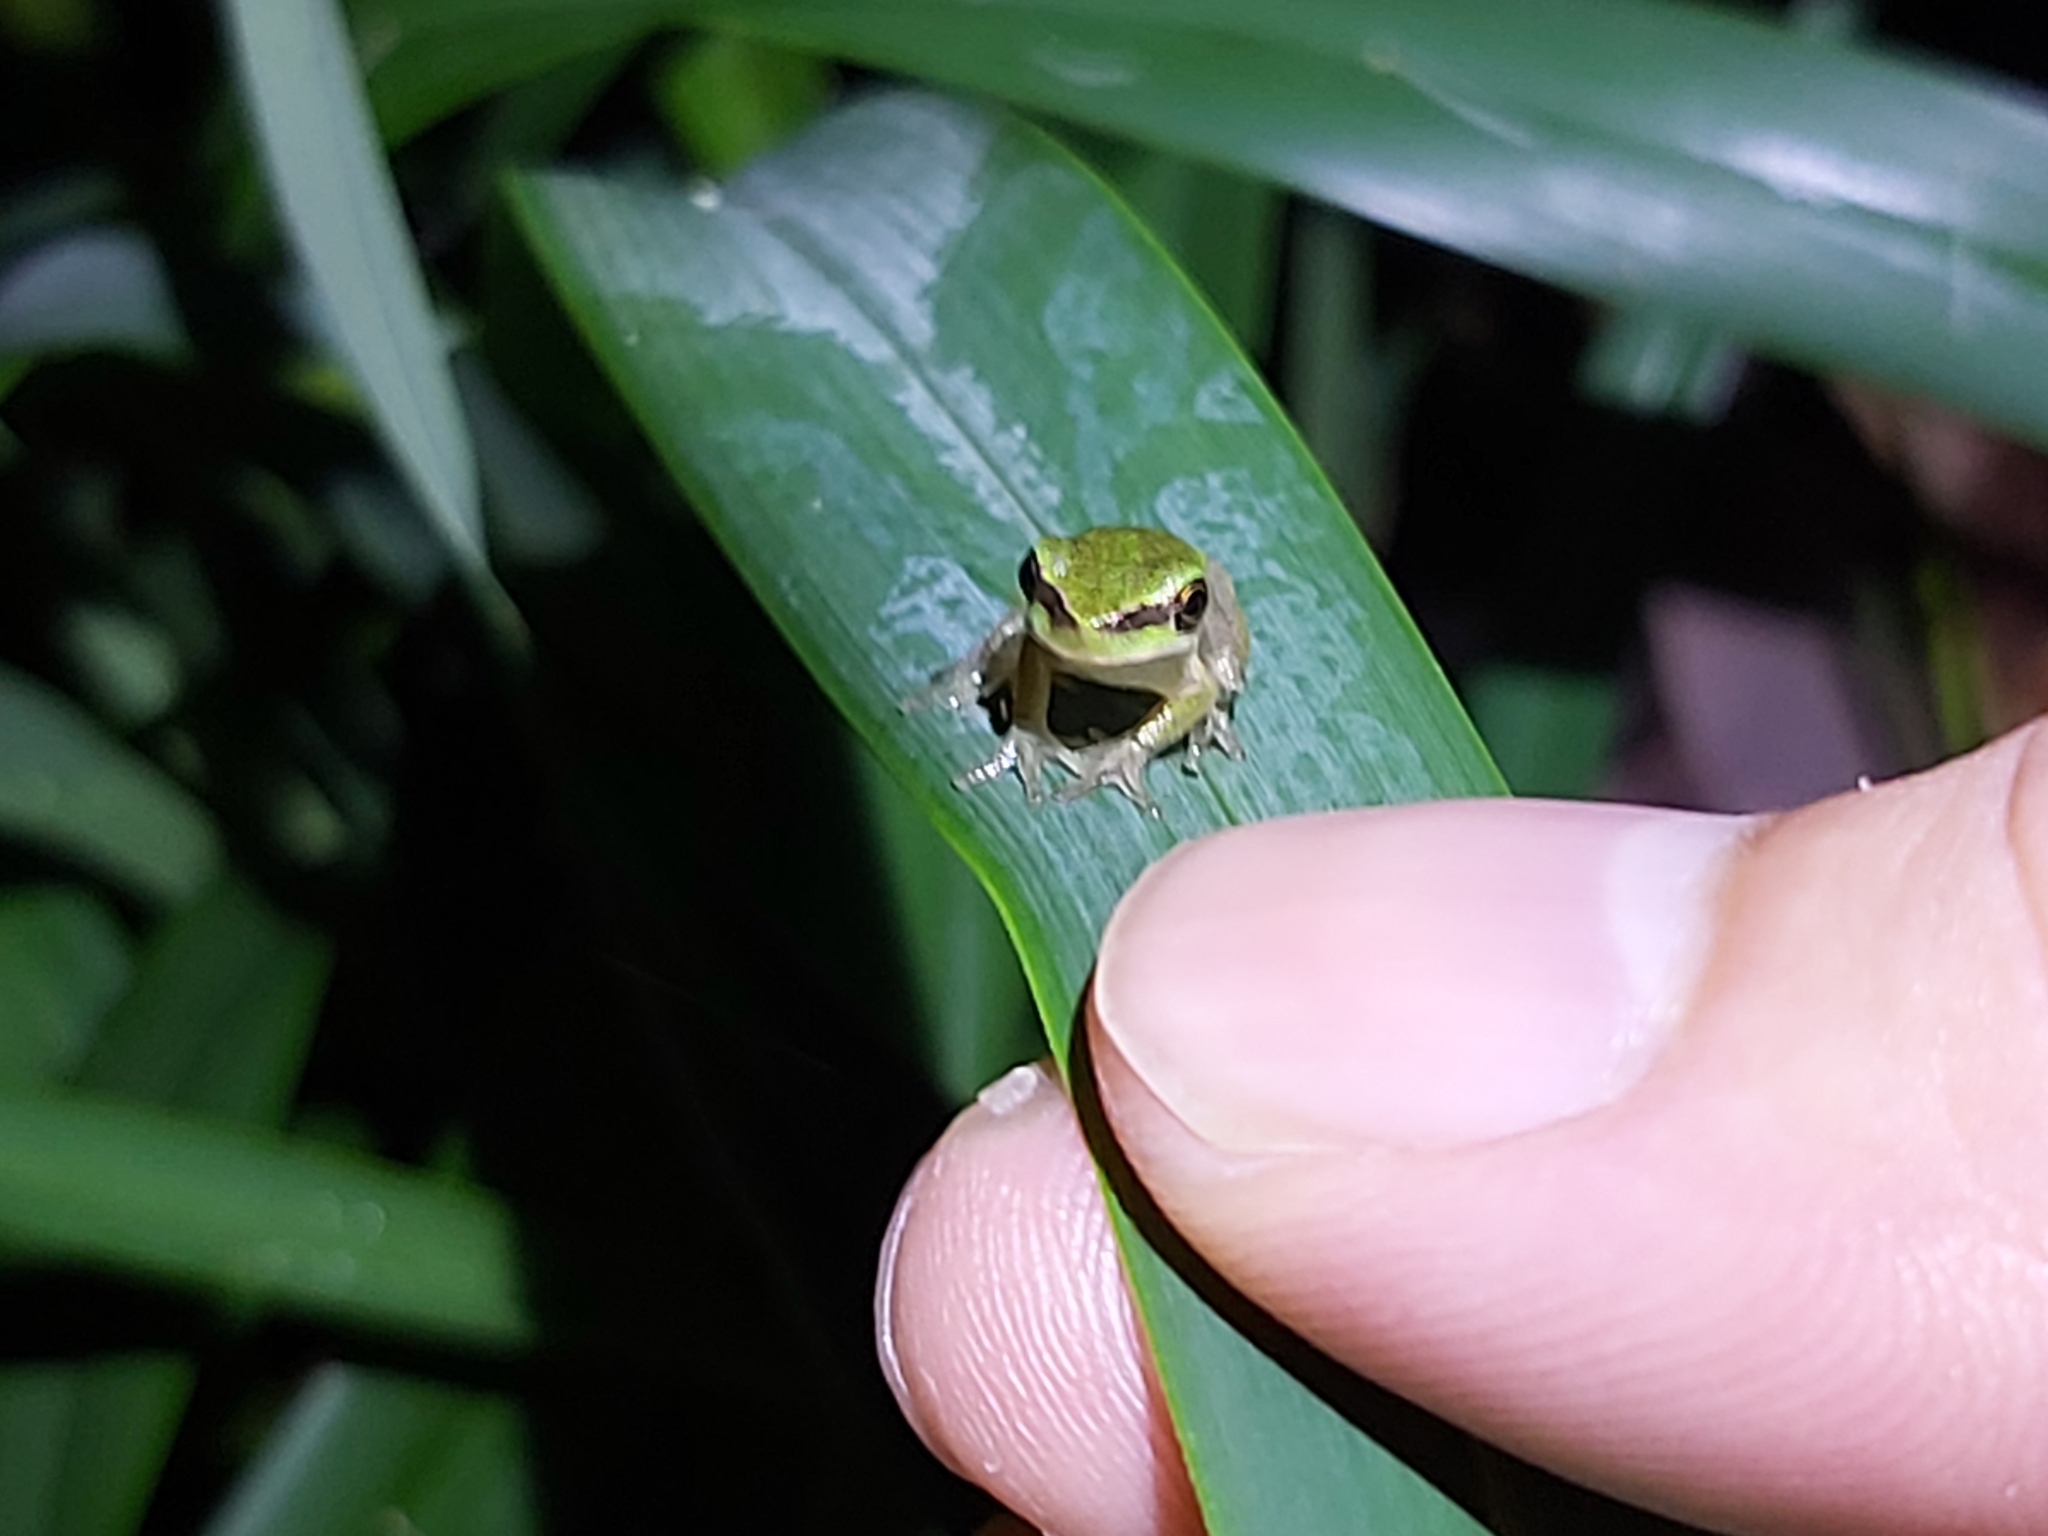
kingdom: Animalia
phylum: Chordata
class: Amphibia
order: Anura
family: Pelodryadidae
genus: Litoria
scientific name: Litoria fallax
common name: Eastern dwarf treefrog
